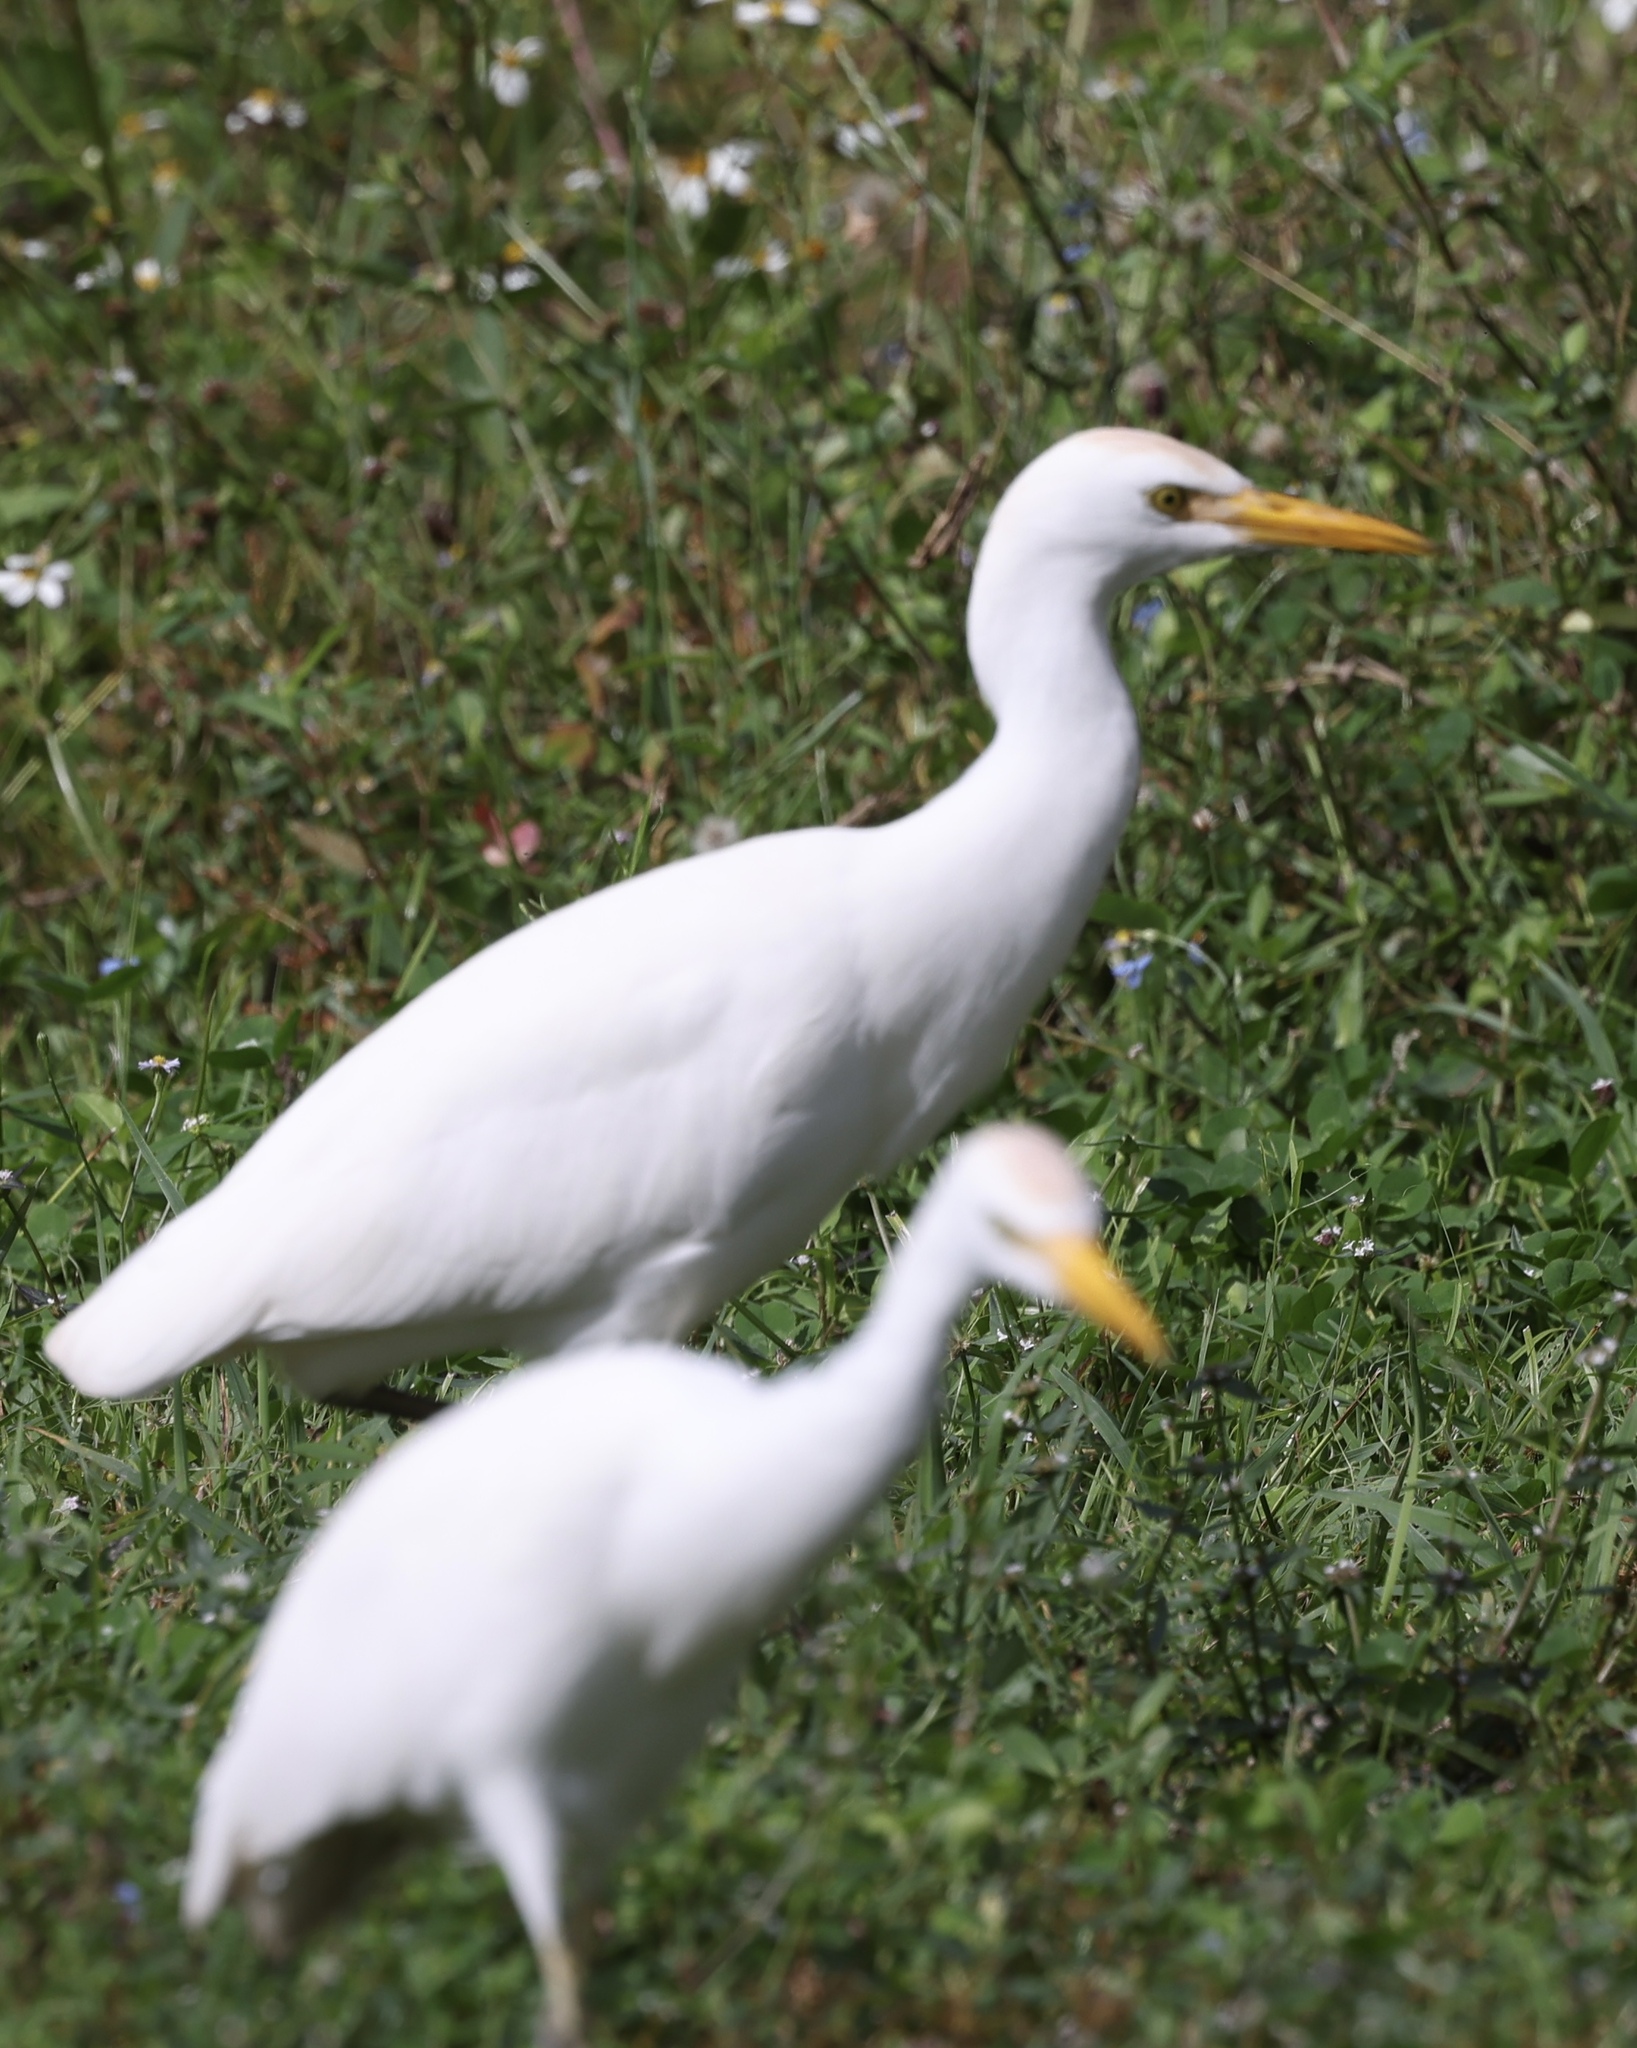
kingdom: Animalia
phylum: Chordata
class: Aves
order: Pelecaniformes
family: Ardeidae
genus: Bubulcus
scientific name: Bubulcus ibis
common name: Cattle egret
